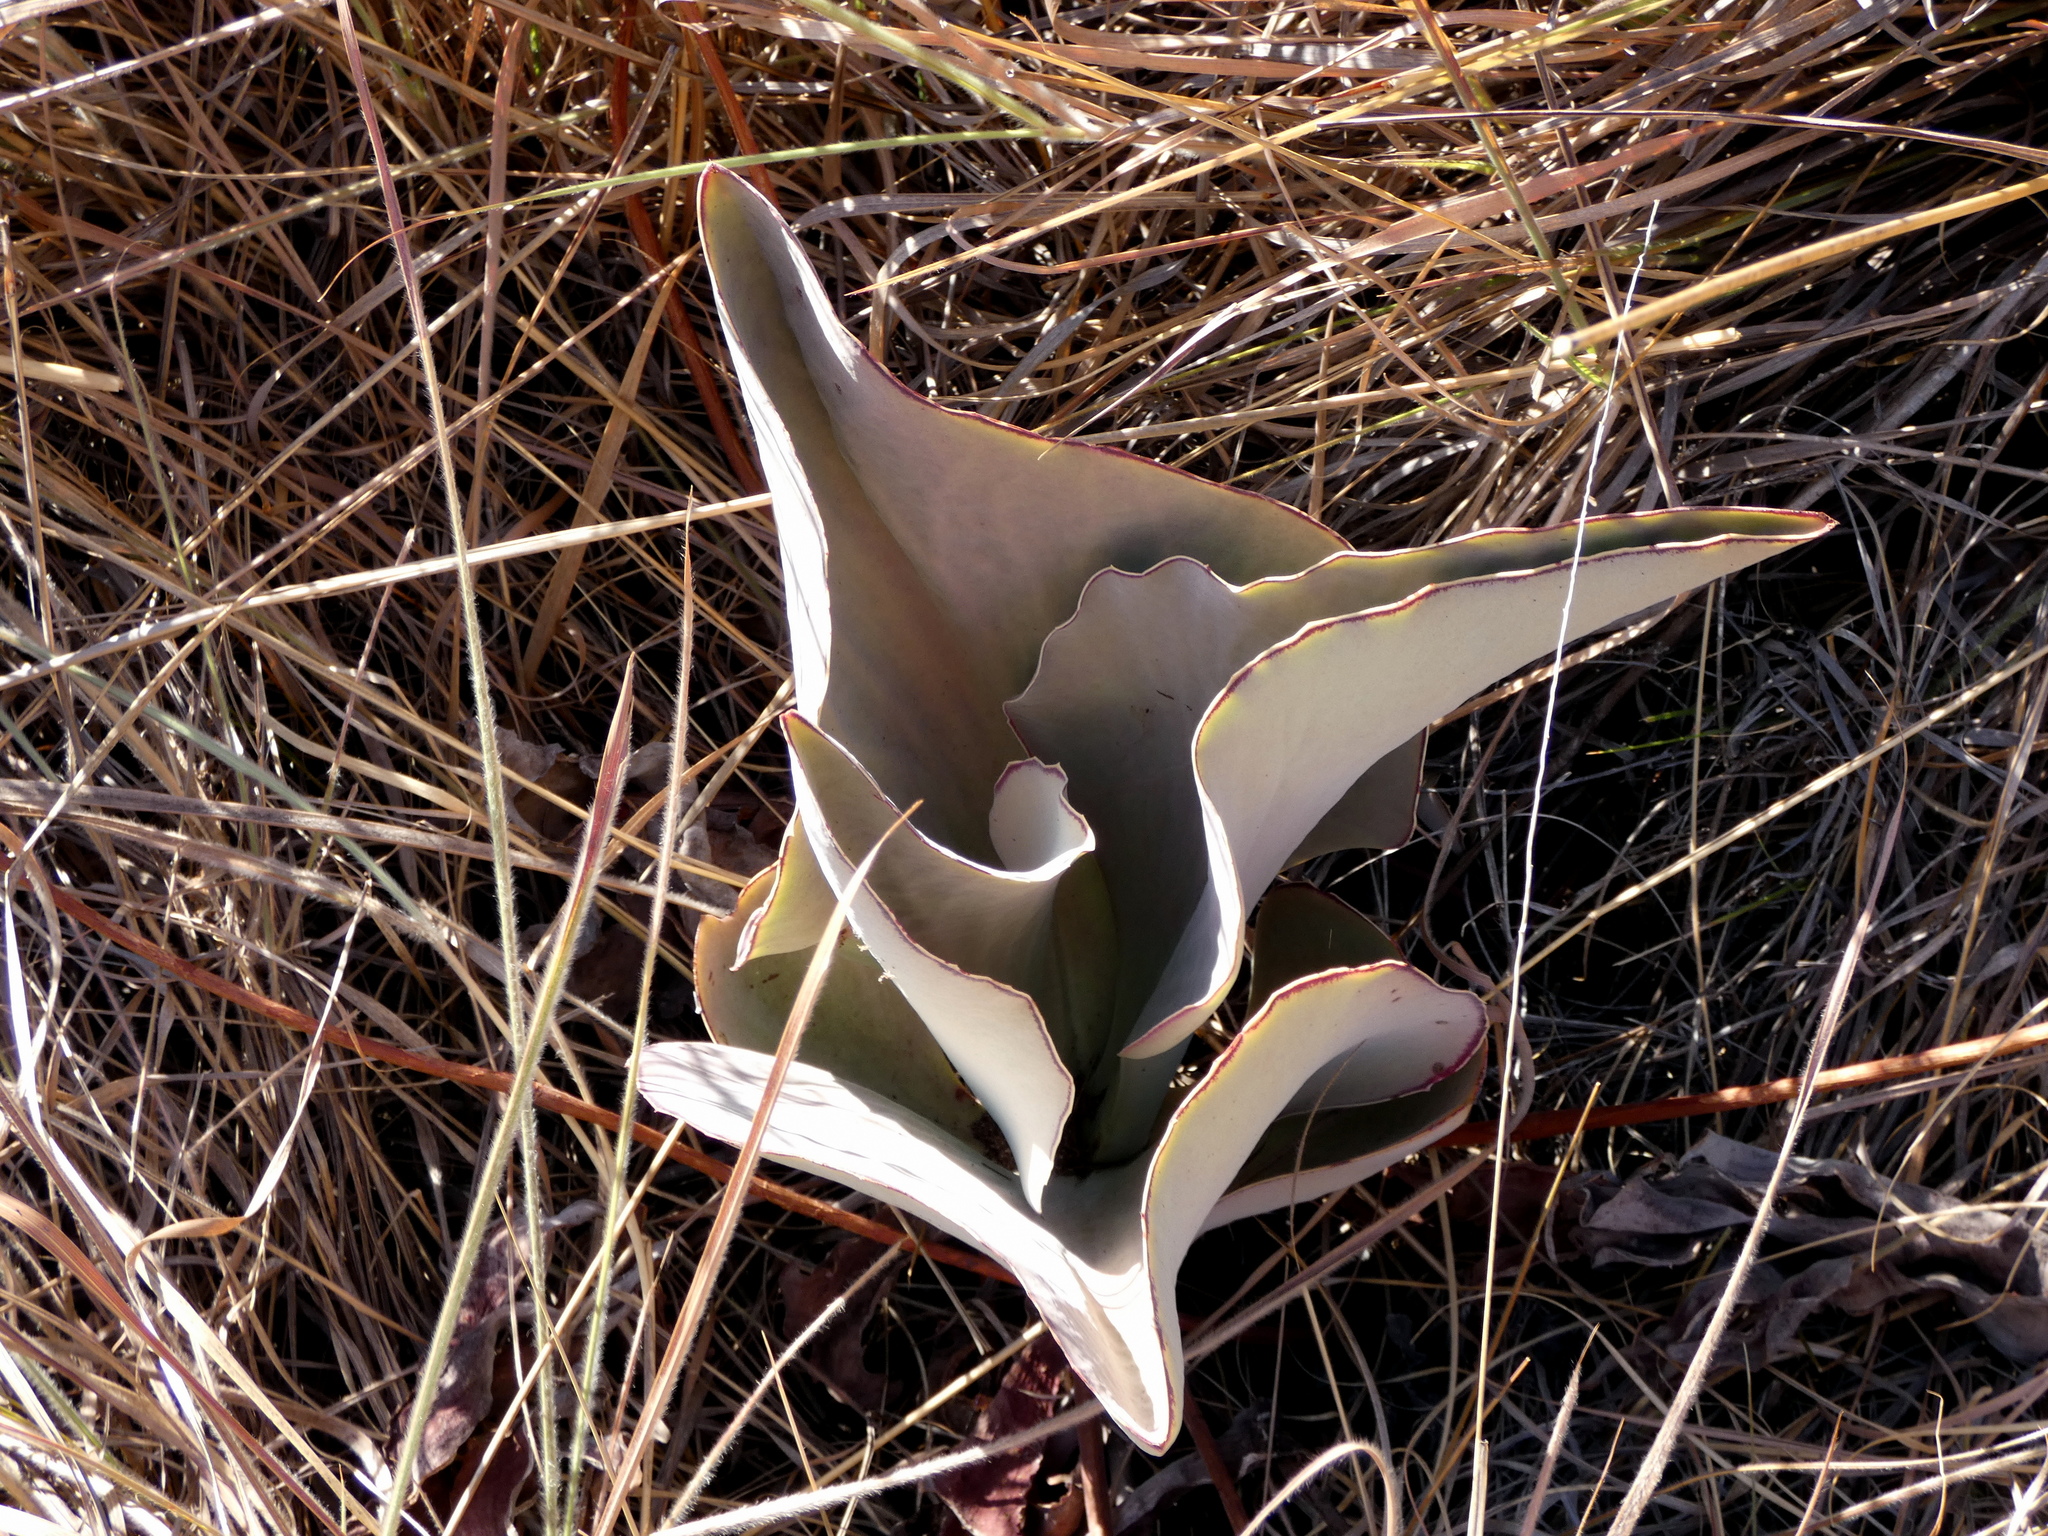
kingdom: Plantae
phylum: Tracheophyta
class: Magnoliopsida
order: Saxifragales
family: Crassulaceae
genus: Kalanchoe
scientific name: Kalanchoe synsepala
